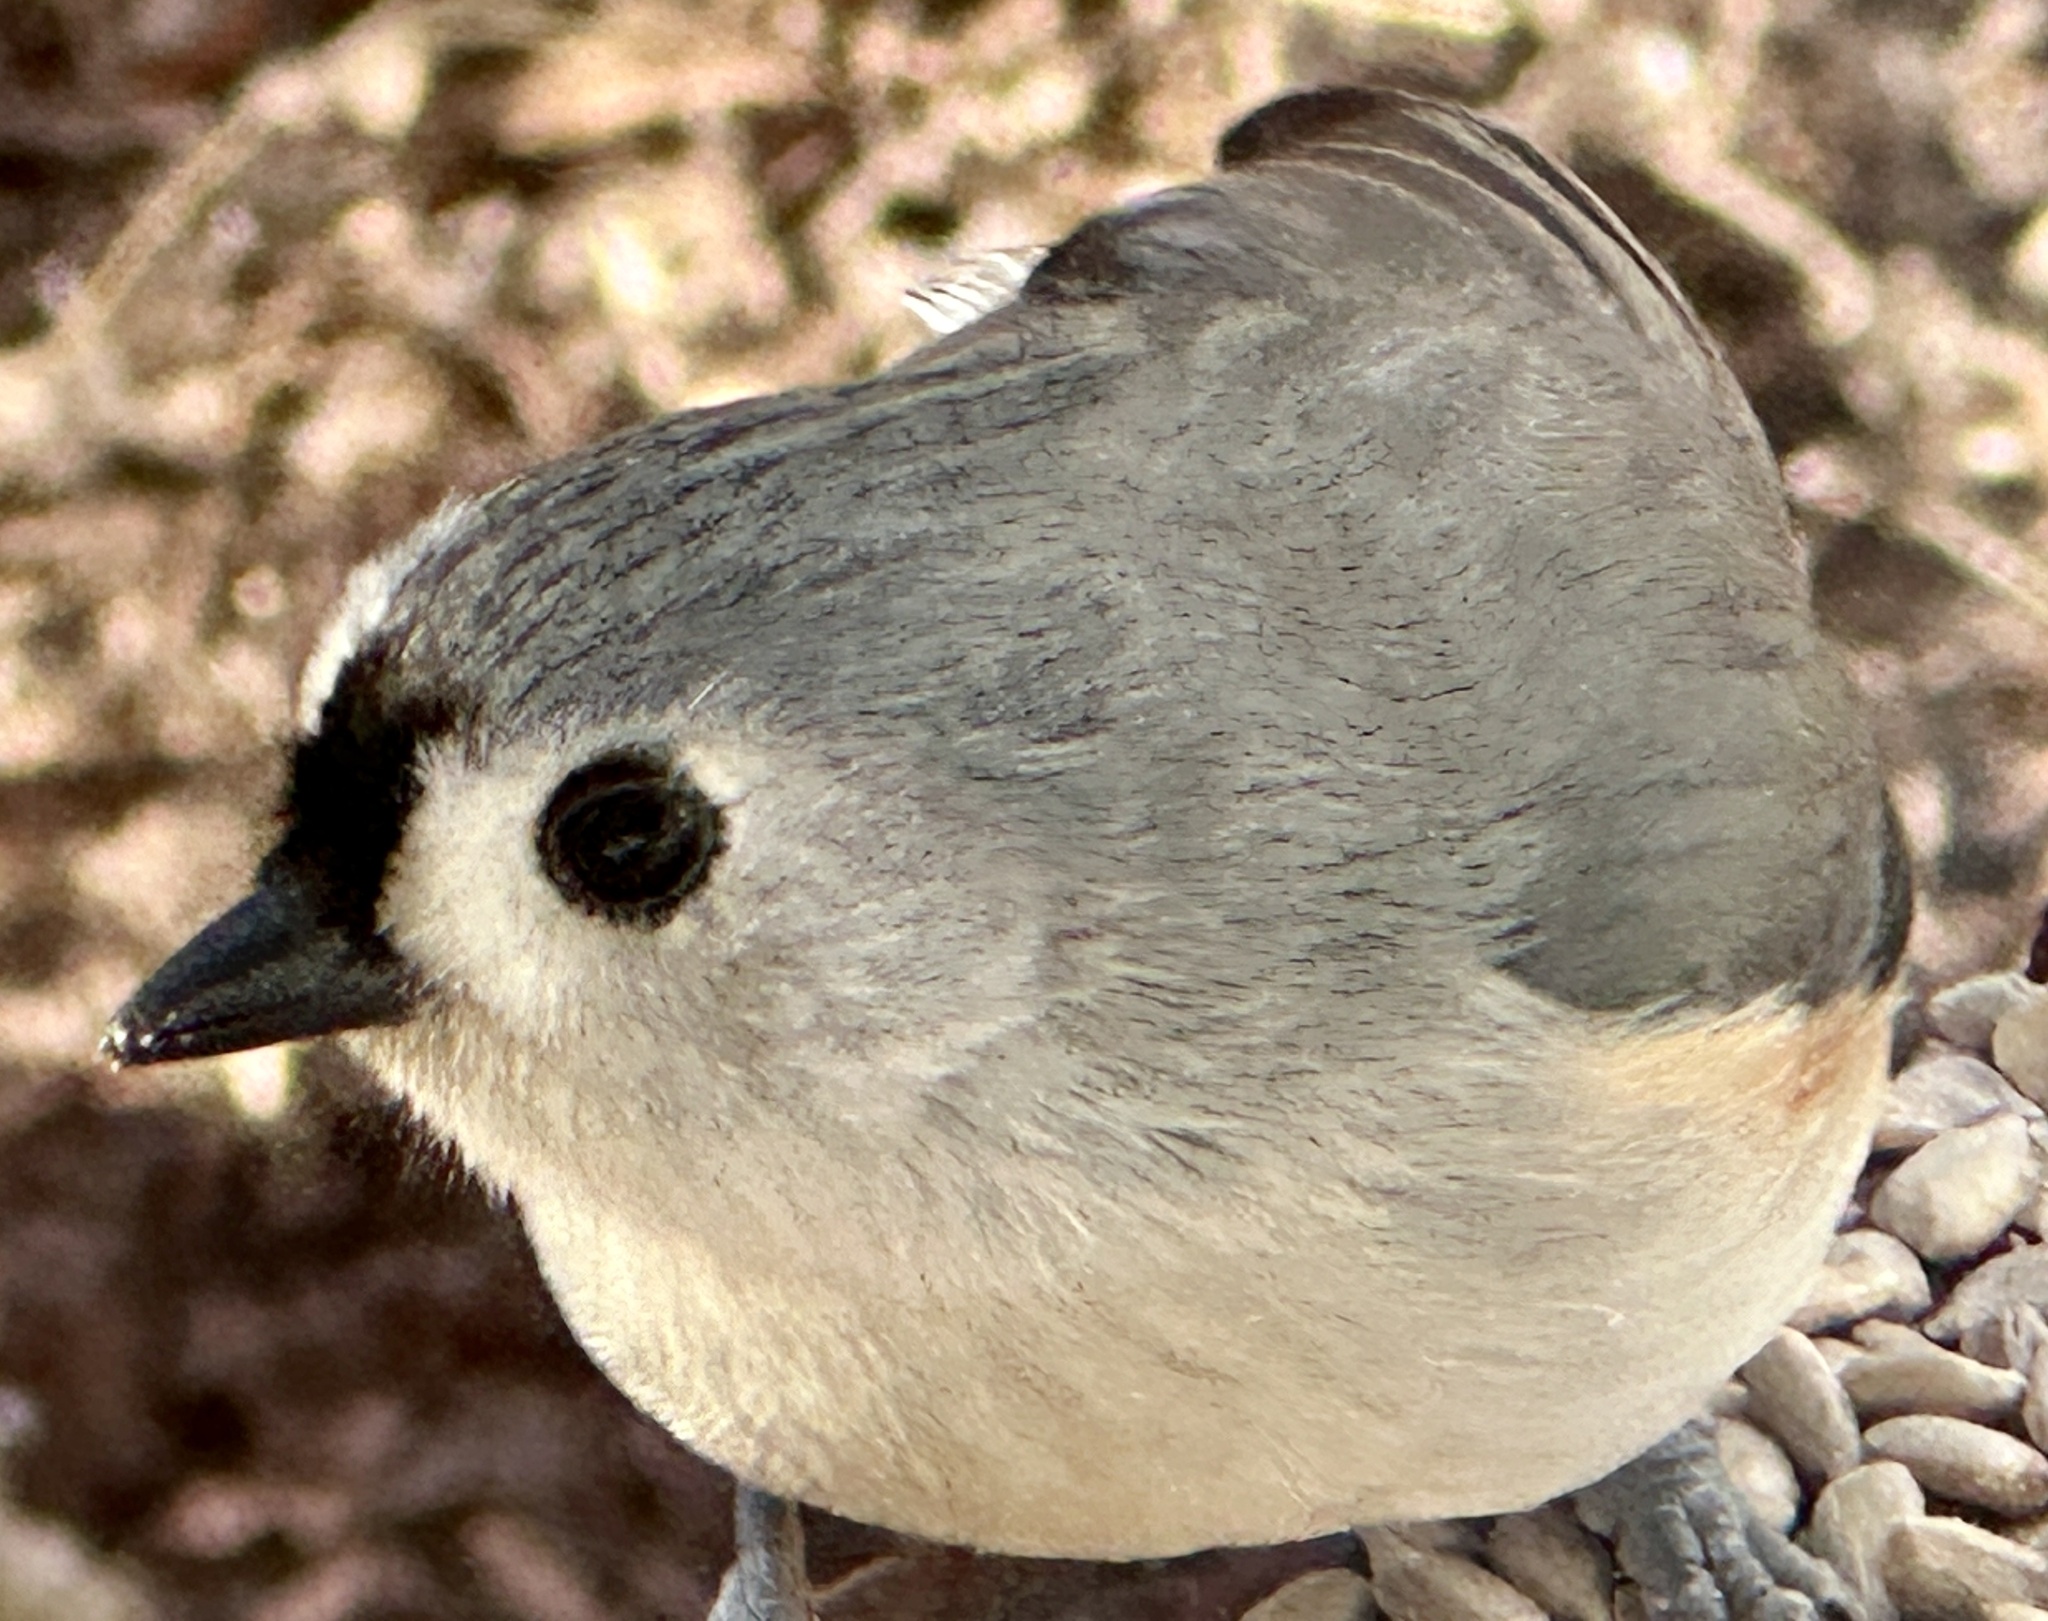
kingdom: Animalia
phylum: Chordata
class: Aves
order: Passeriformes
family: Paridae
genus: Baeolophus
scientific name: Baeolophus bicolor
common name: Tufted titmouse
